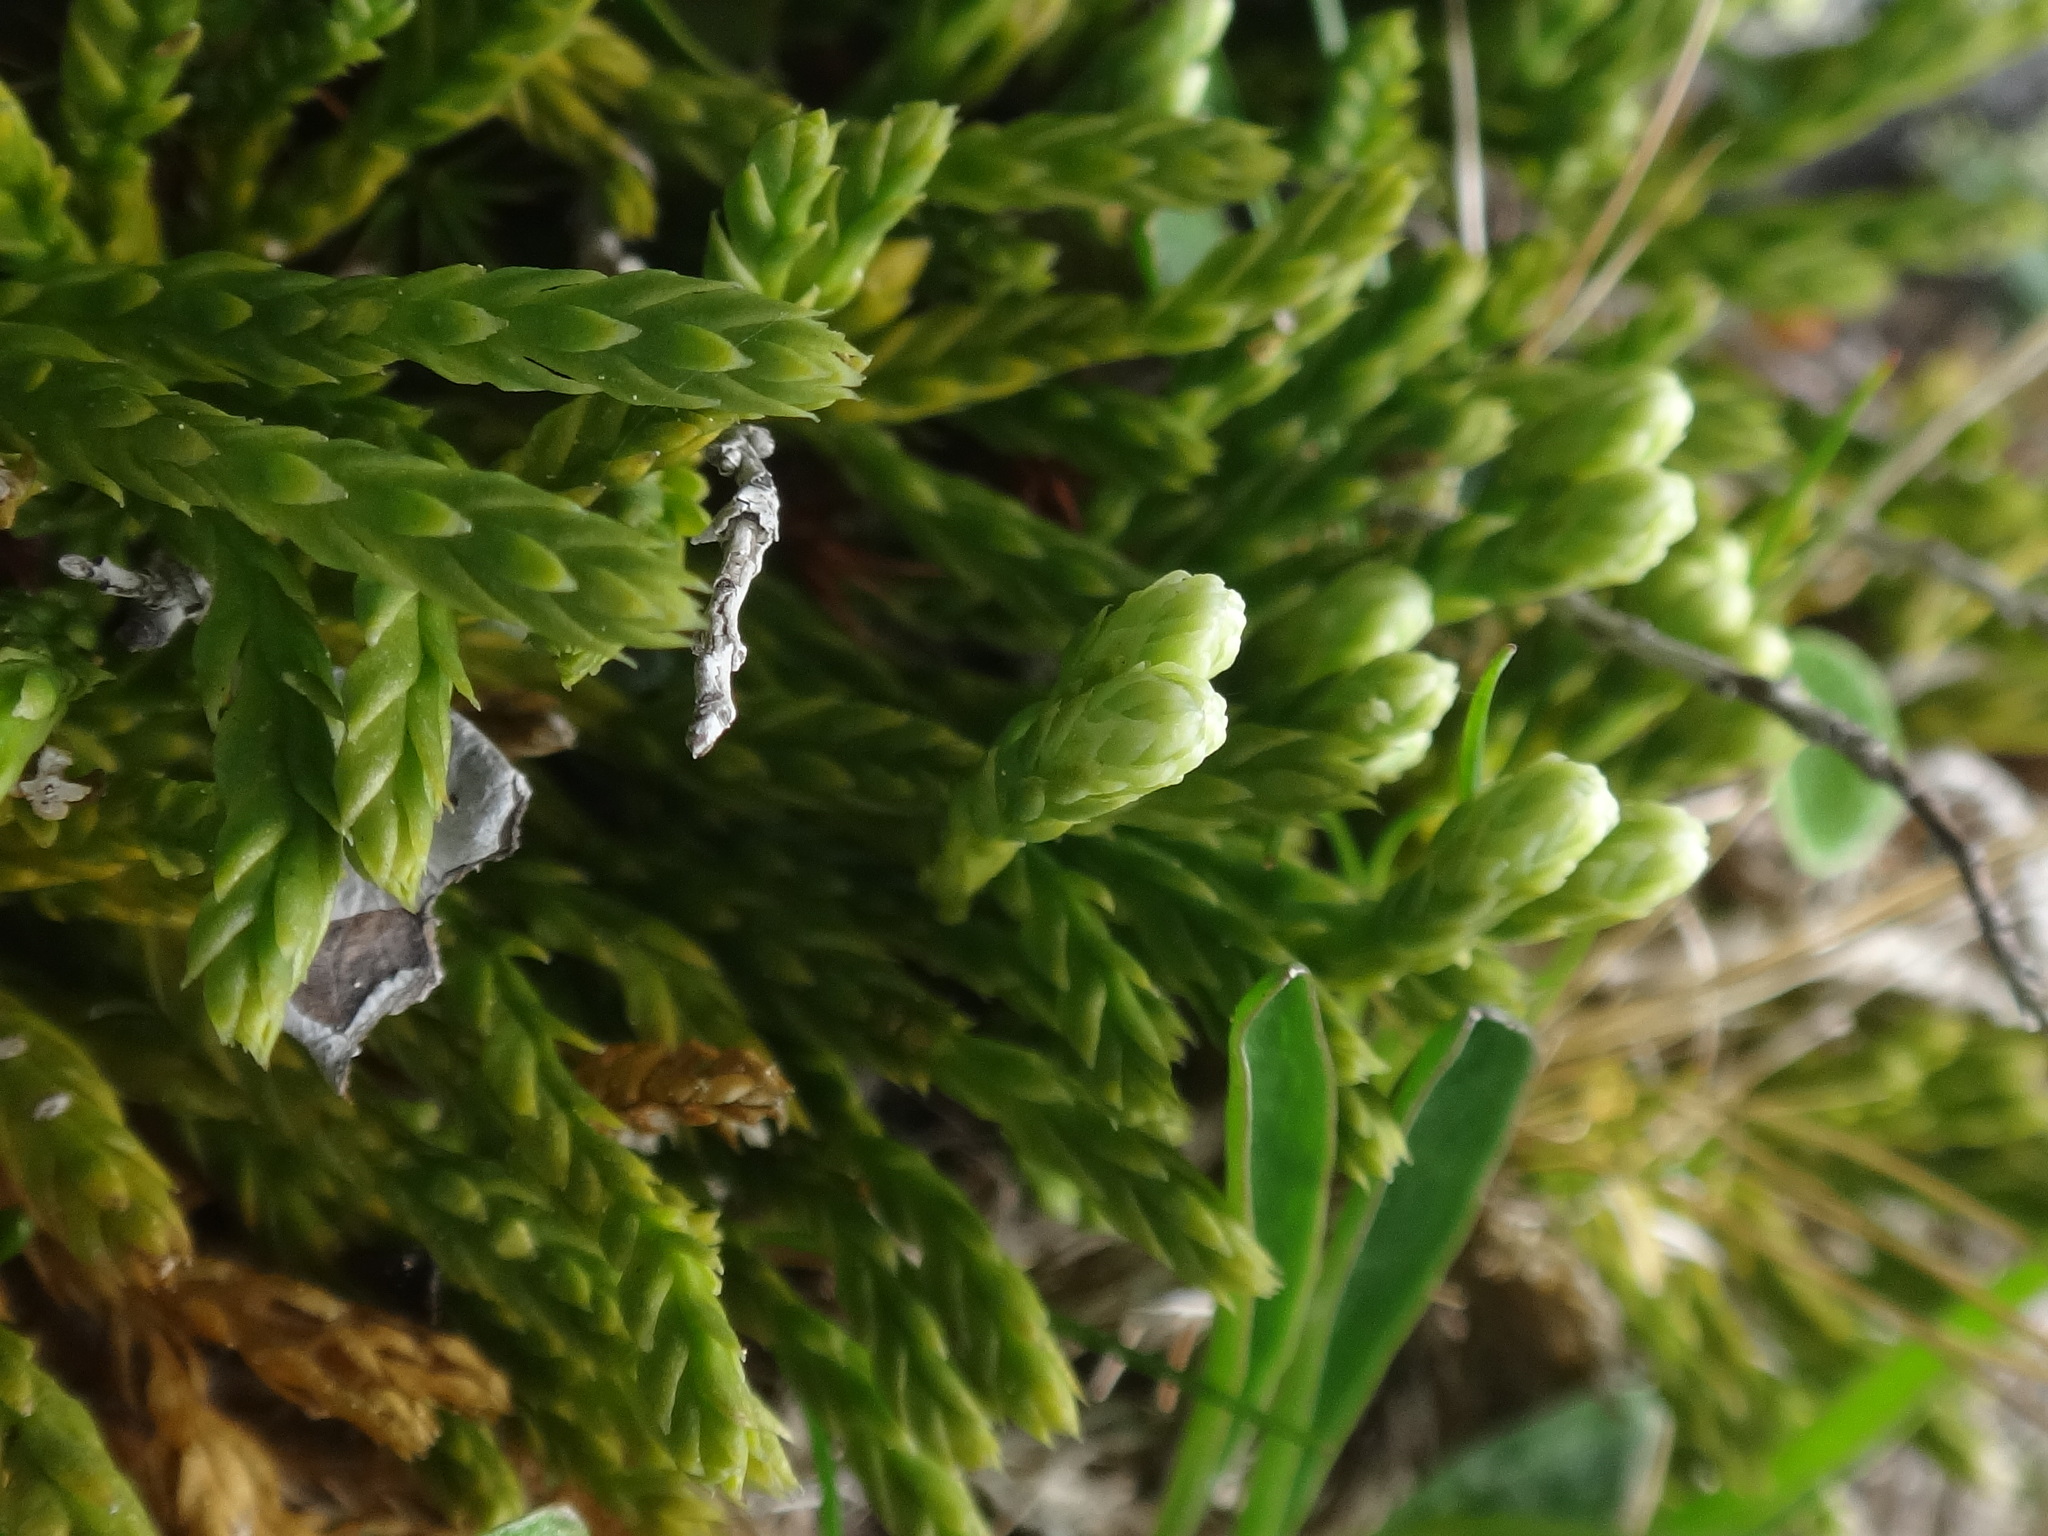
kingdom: Plantae
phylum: Tracheophyta
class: Lycopodiopsida
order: Lycopodiales
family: Lycopodiaceae
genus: Diphasiastrum
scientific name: Diphasiastrum alpinum
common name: Alpine clubmoss
